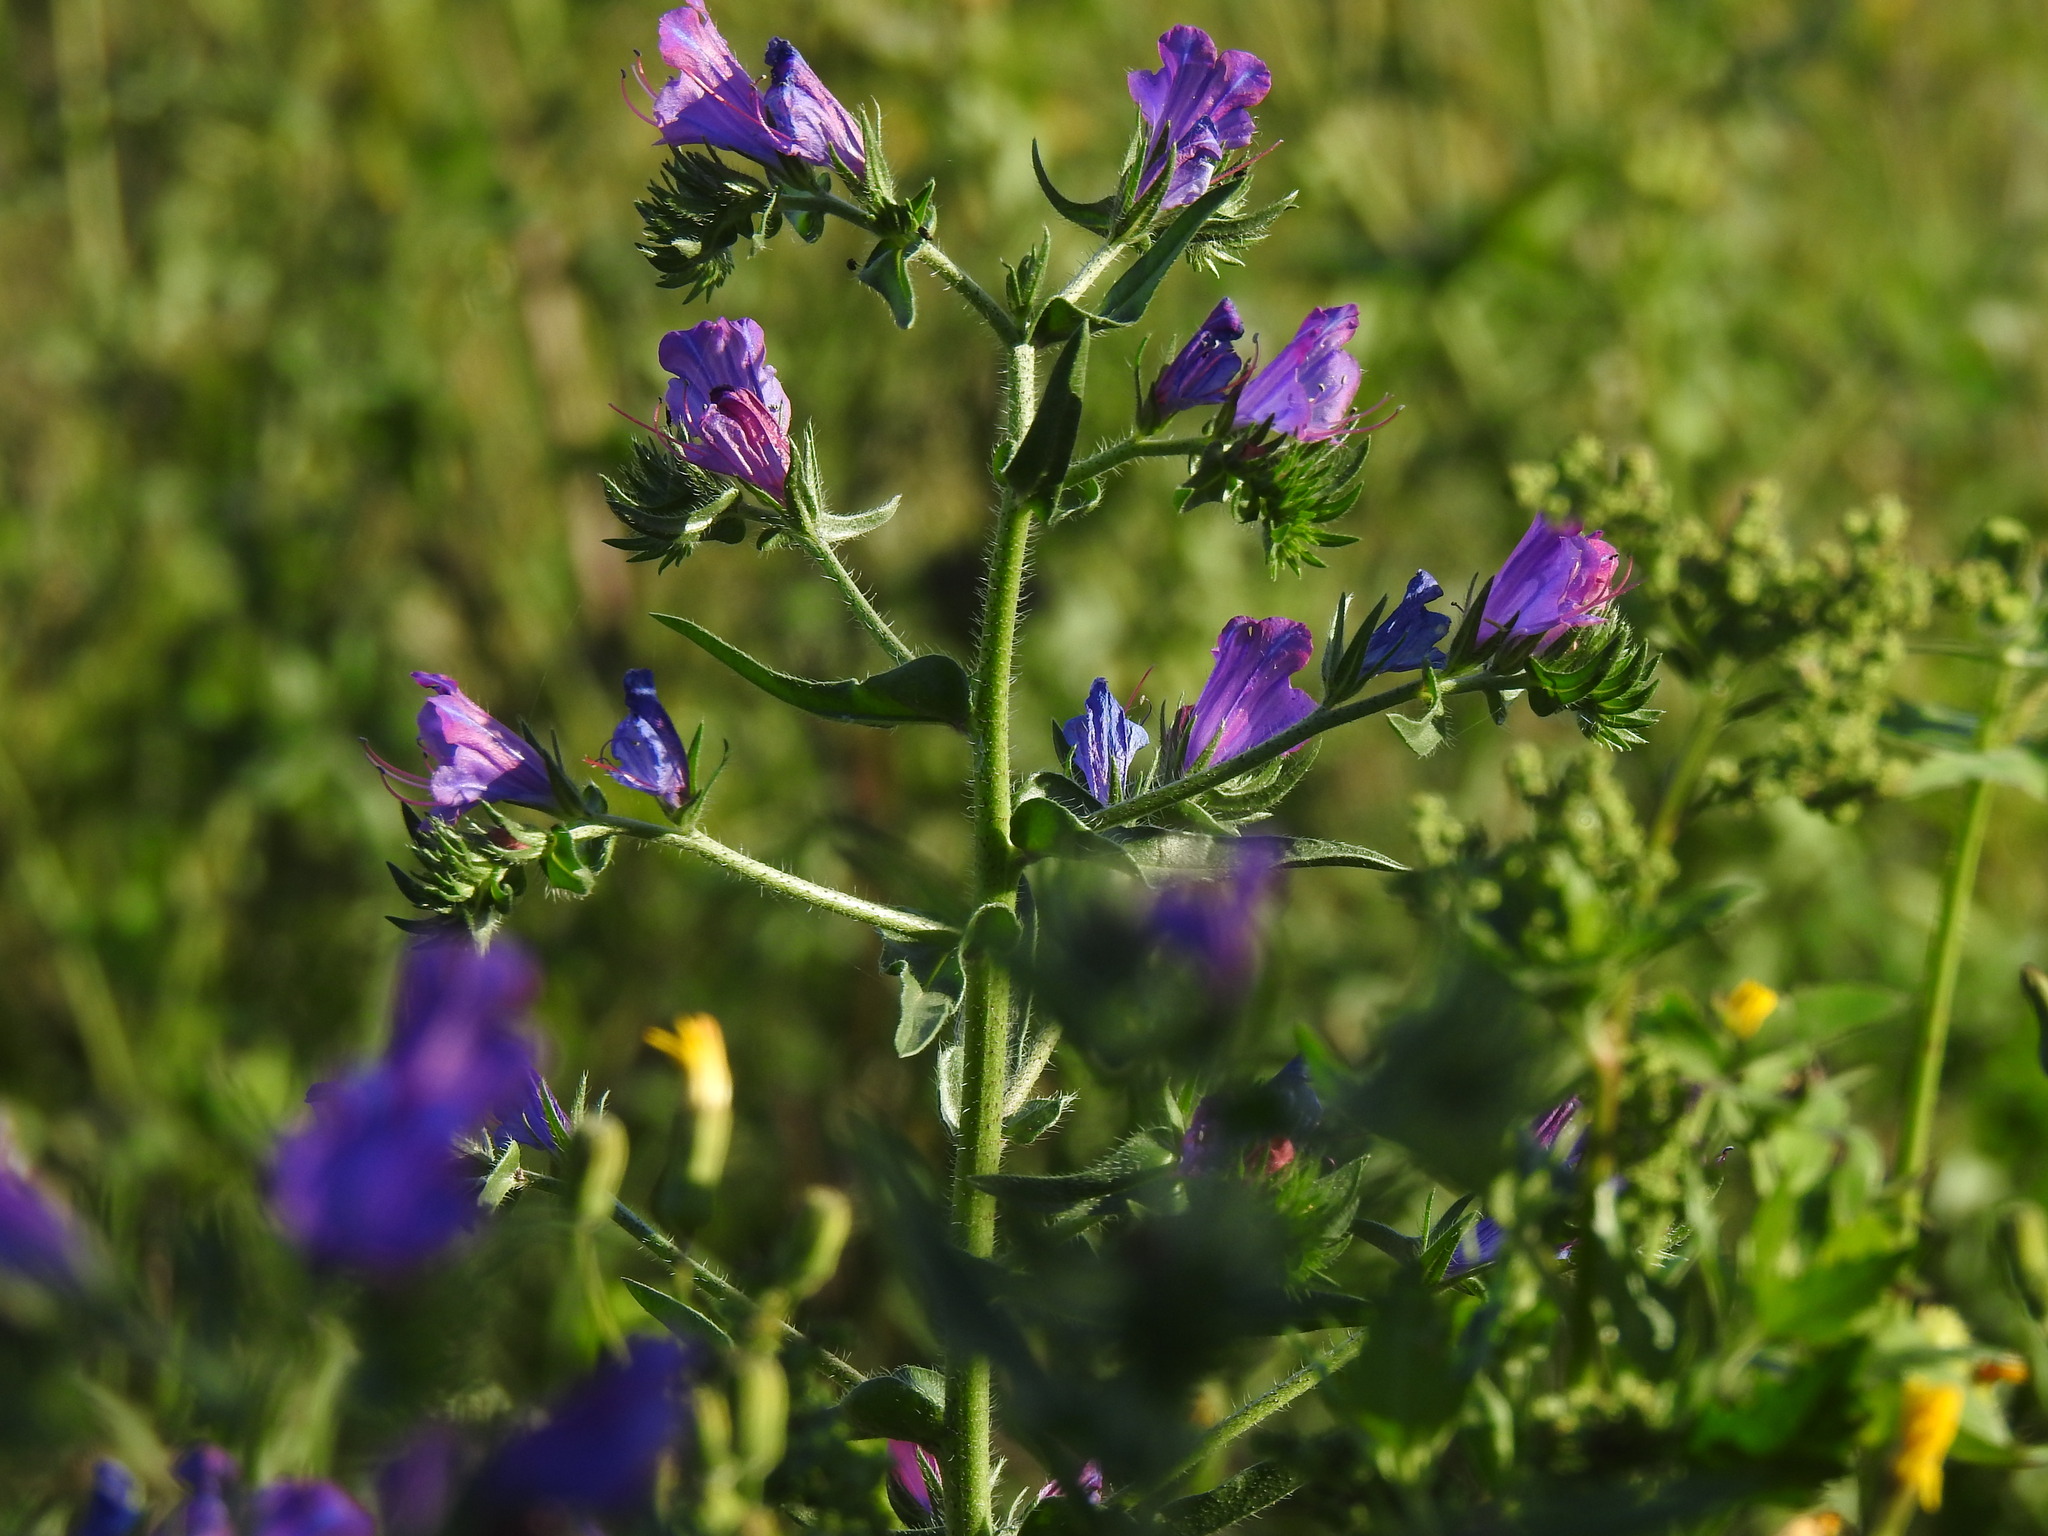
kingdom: Plantae
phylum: Tracheophyta
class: Magnoliopsida
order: Boraginales
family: Boraginaceae
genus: Echium
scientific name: Echium plantagineum
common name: Purple viper's-bugloss
